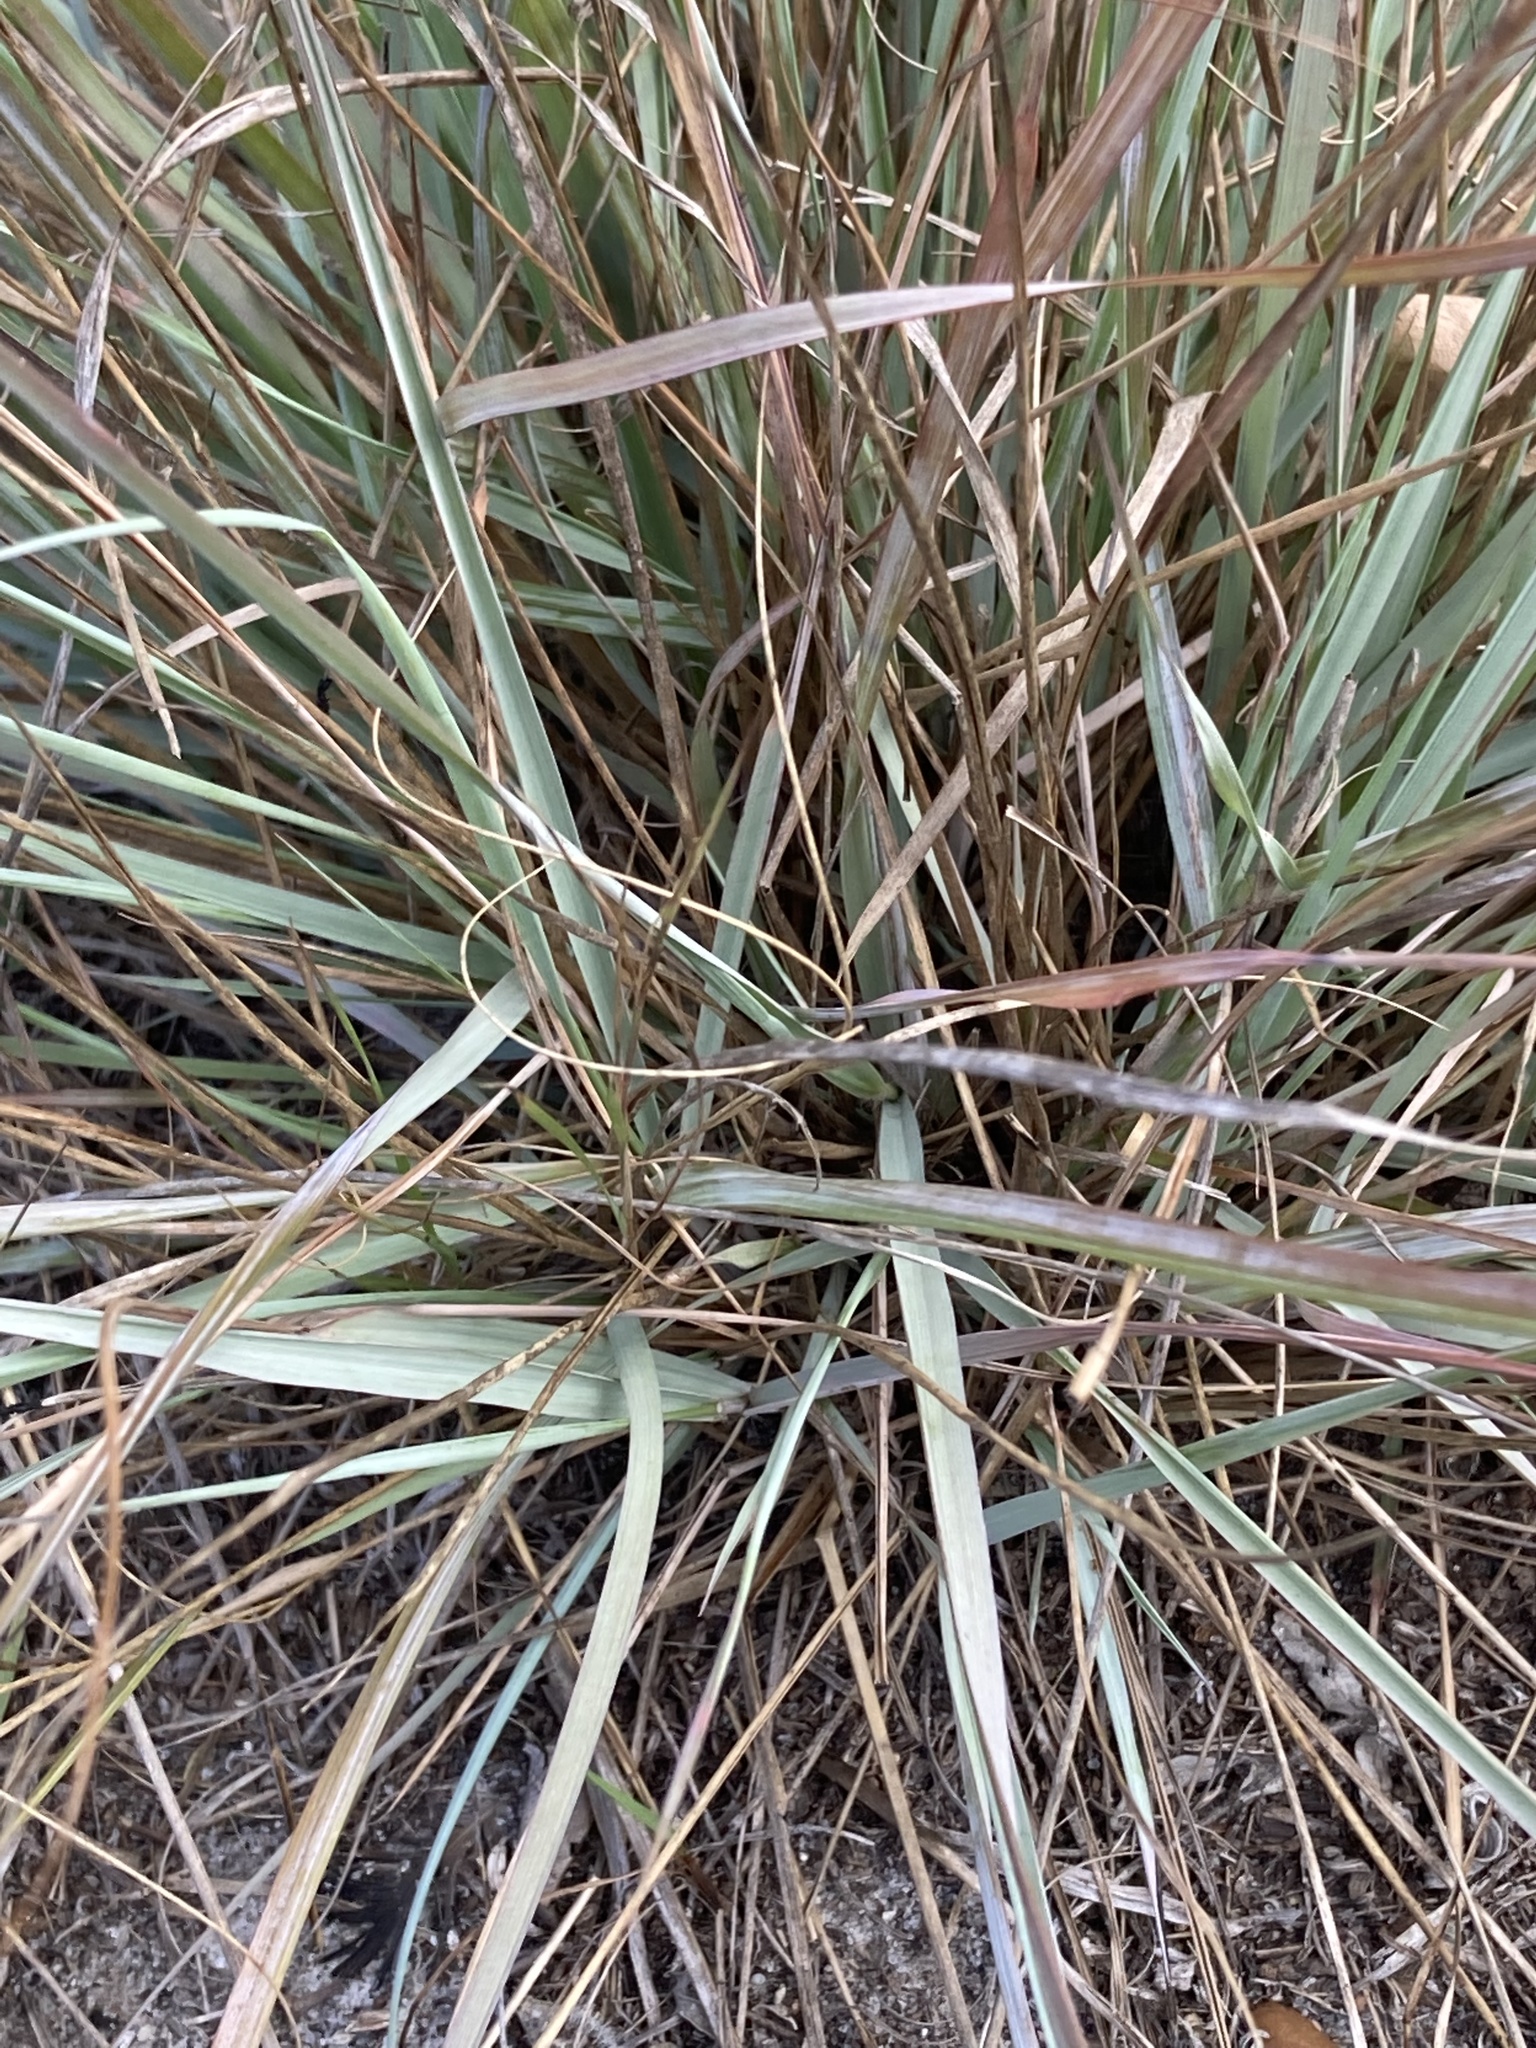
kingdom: Plantae
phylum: Tracheophyta
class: Liliopsida
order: Poales
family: Poaceae
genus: Eragrostis
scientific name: Eragrostis elliottii
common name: Elliott's love grass
